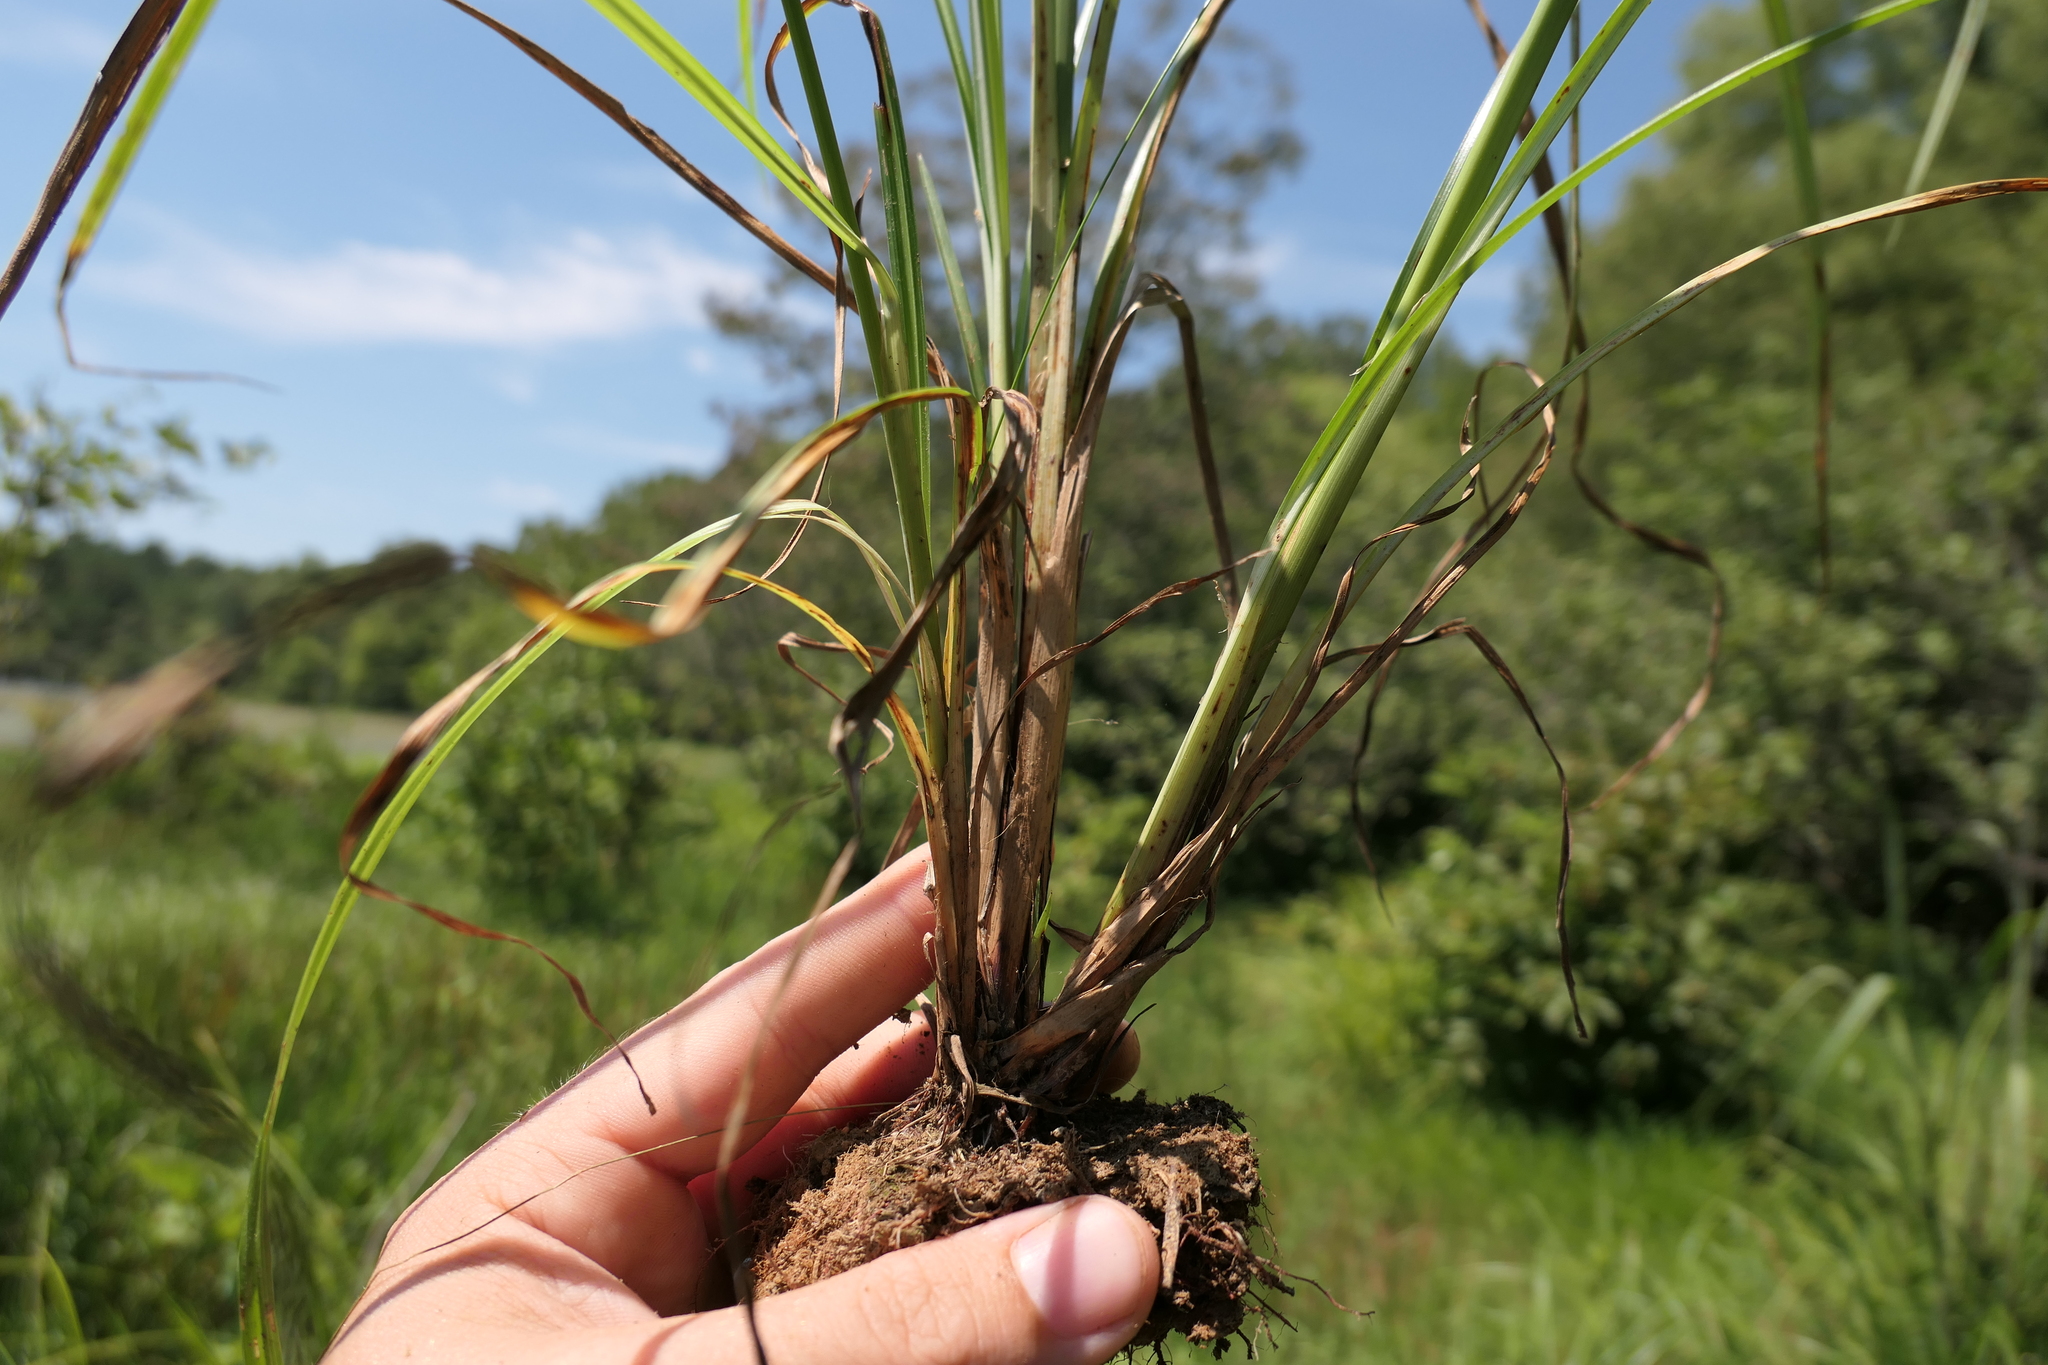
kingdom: Plantae
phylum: Tracheophyta
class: Liliopsida
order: Poales
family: Cyperaceae
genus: Cyperus
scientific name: Cyperus erythrorhizos
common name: Red-root flat sedge
